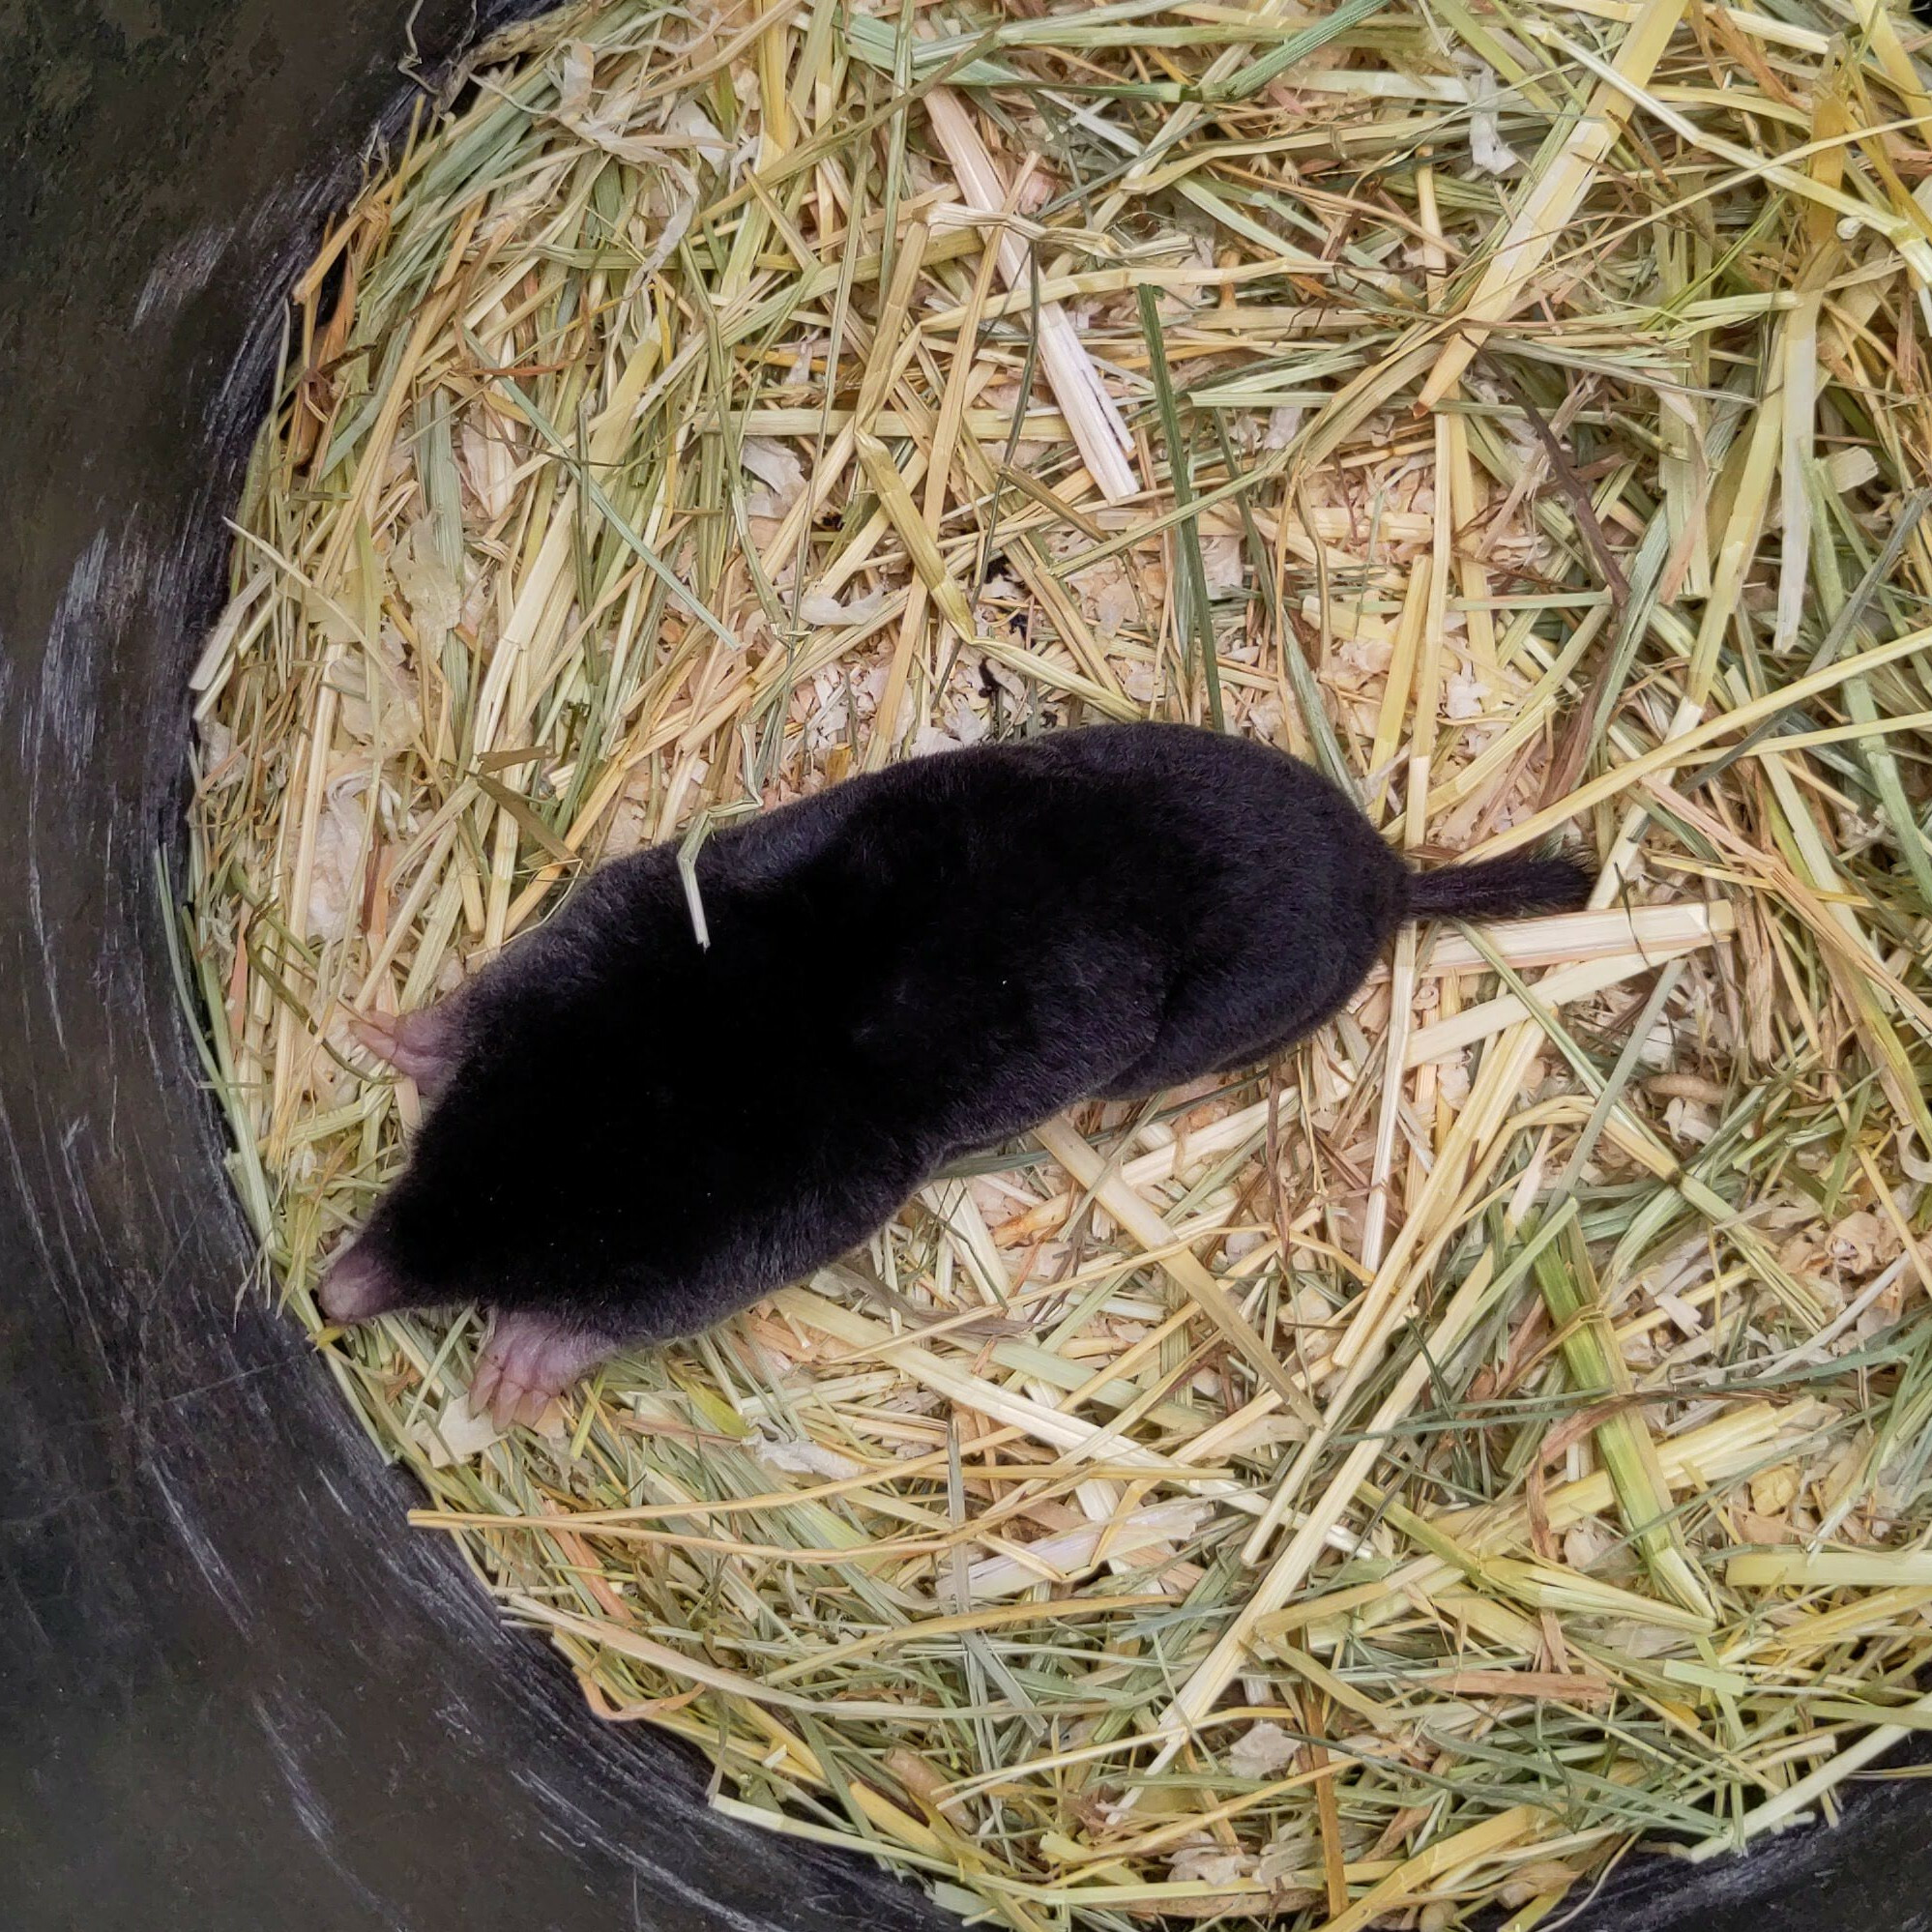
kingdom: Animalia
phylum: Chordata
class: Mammalia
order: Soricomorpha
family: Talpidae
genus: Talpa
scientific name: Talpa europaea
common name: European mole
